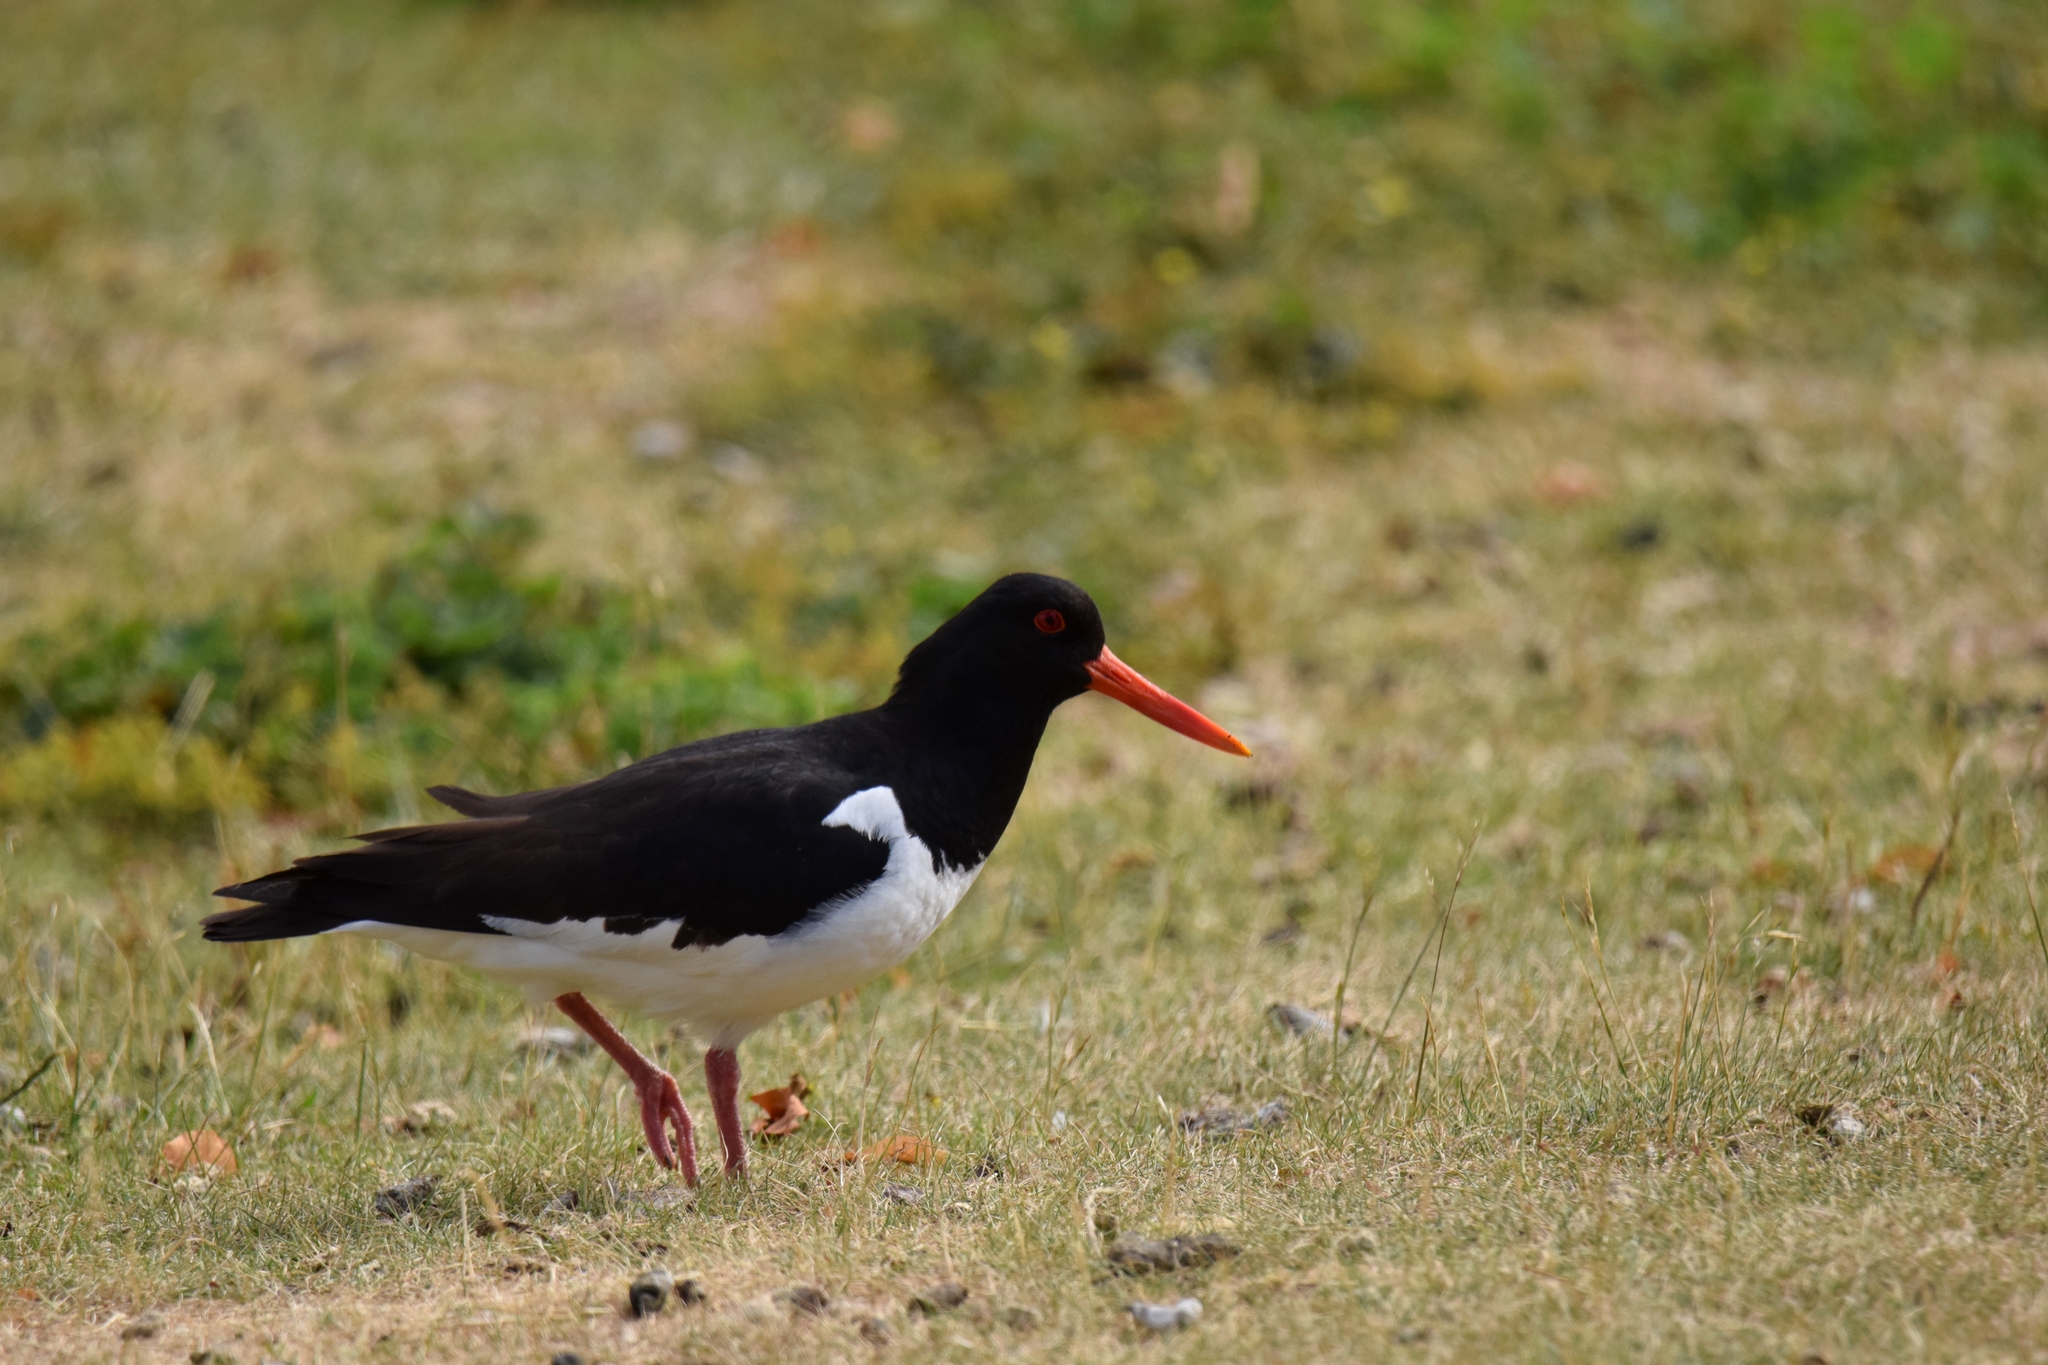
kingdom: Animalia
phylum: Chordata
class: Aves
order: Charadriiformes
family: Haematopodidae
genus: Haematopus
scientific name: Haematopus ostralegus
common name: Eurasian oystercatcher
